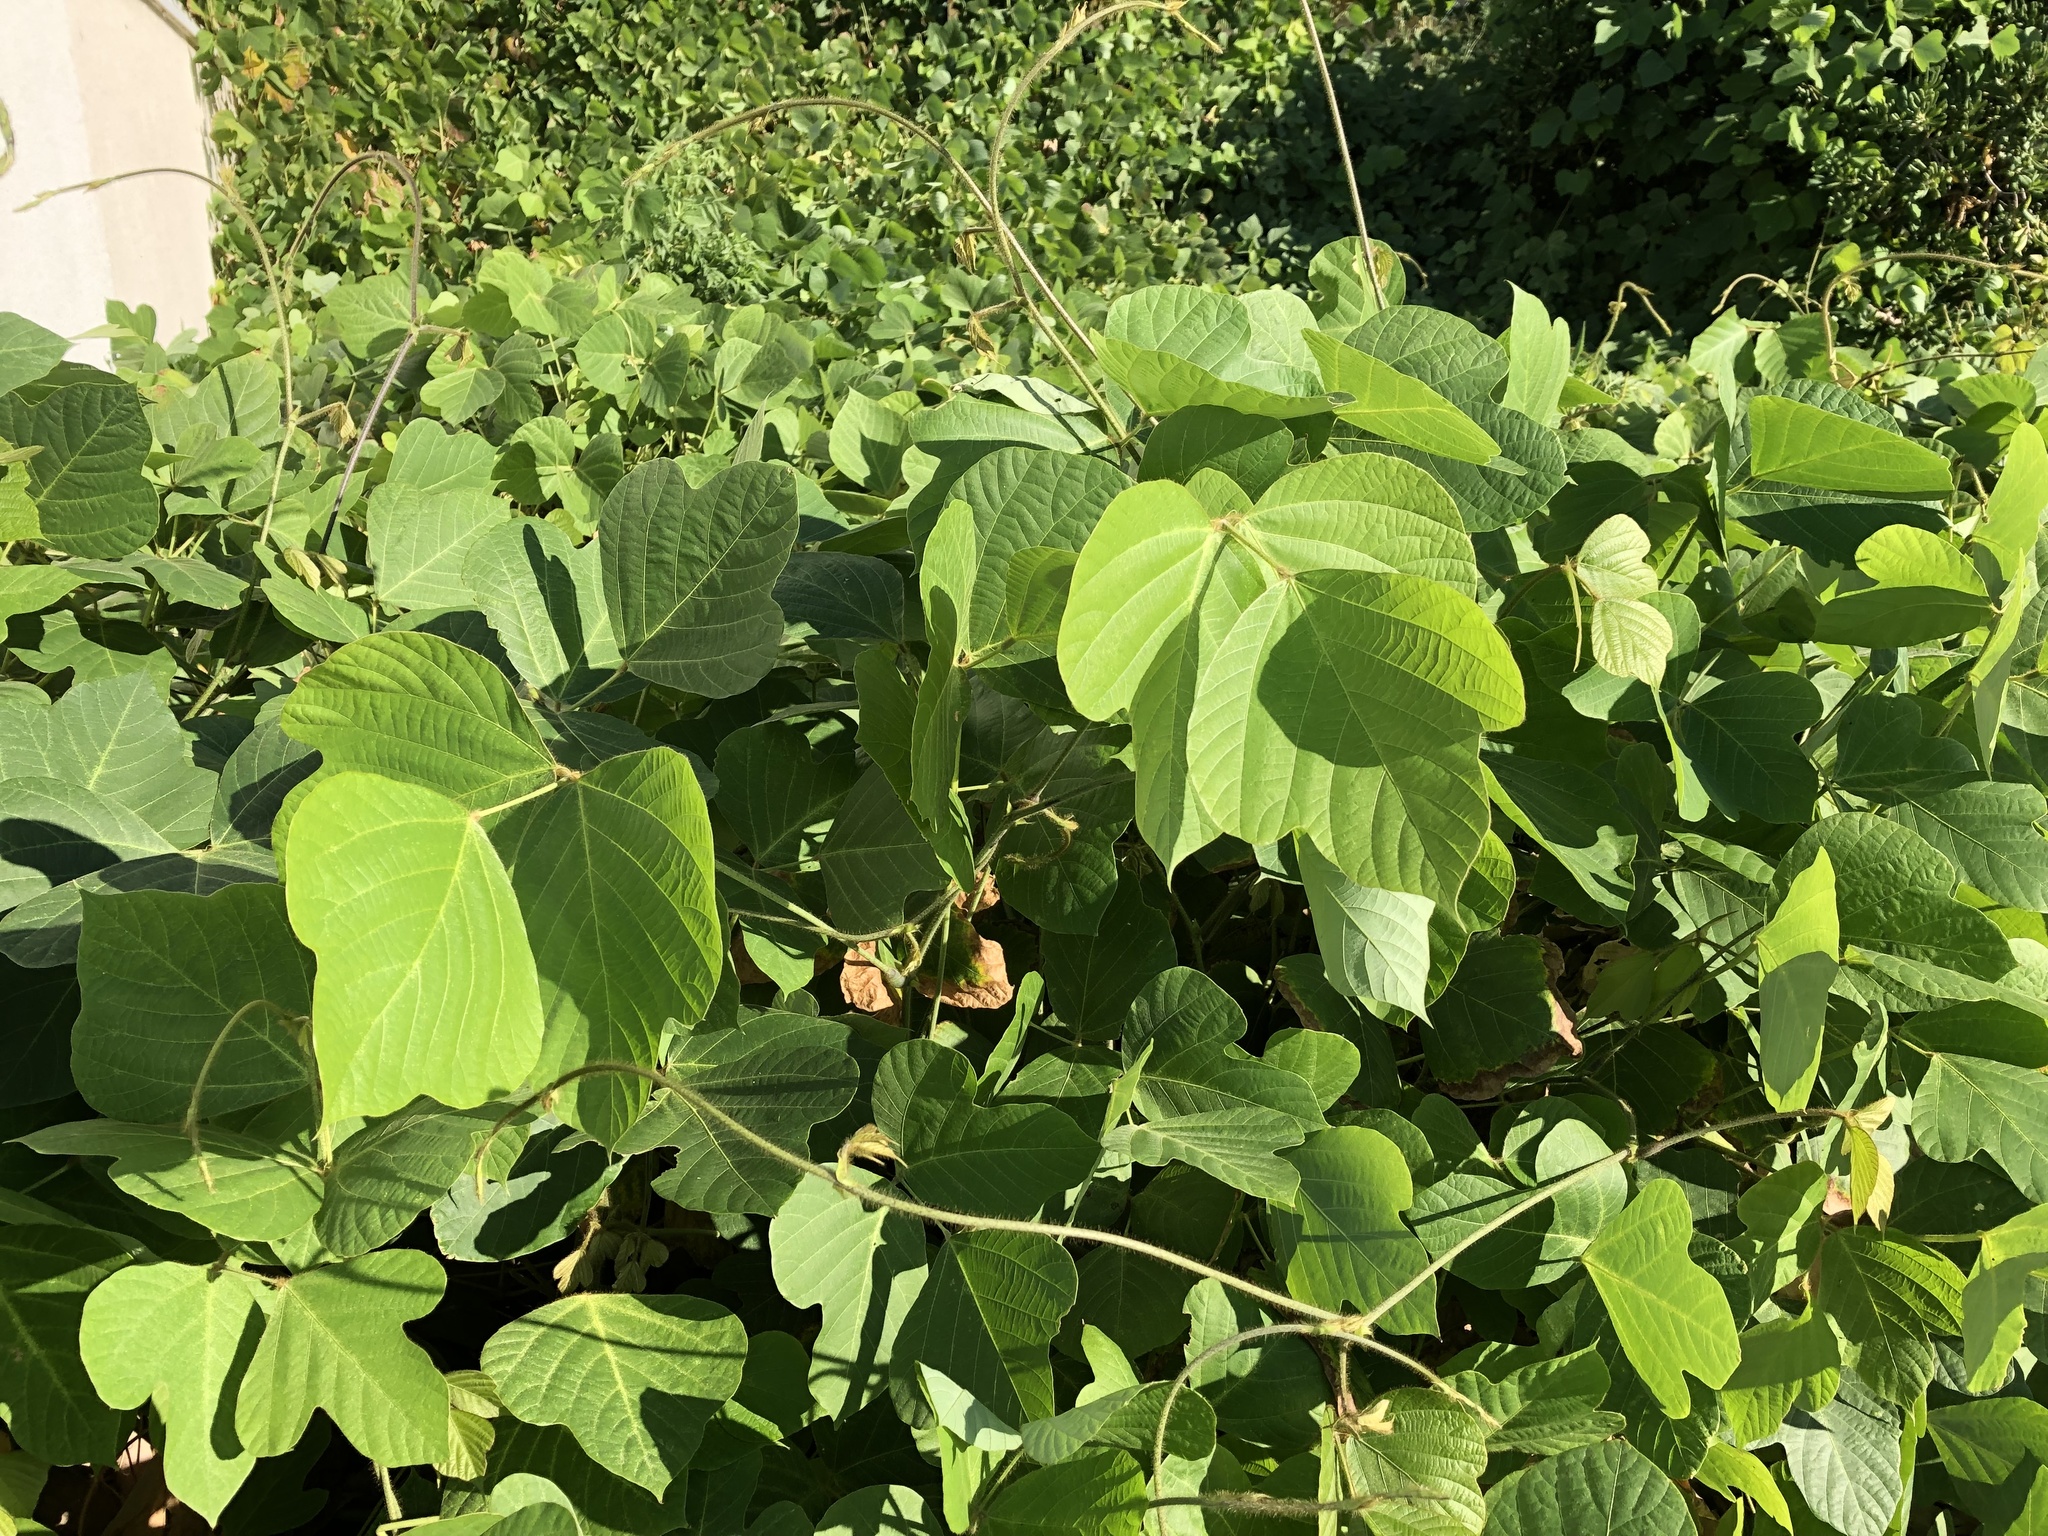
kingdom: Plantae
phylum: Tracheophyta
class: Magnoliopsida
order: Fabales
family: Fabaceae
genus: Pueraria
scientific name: Pueraria montana
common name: Kudzu
